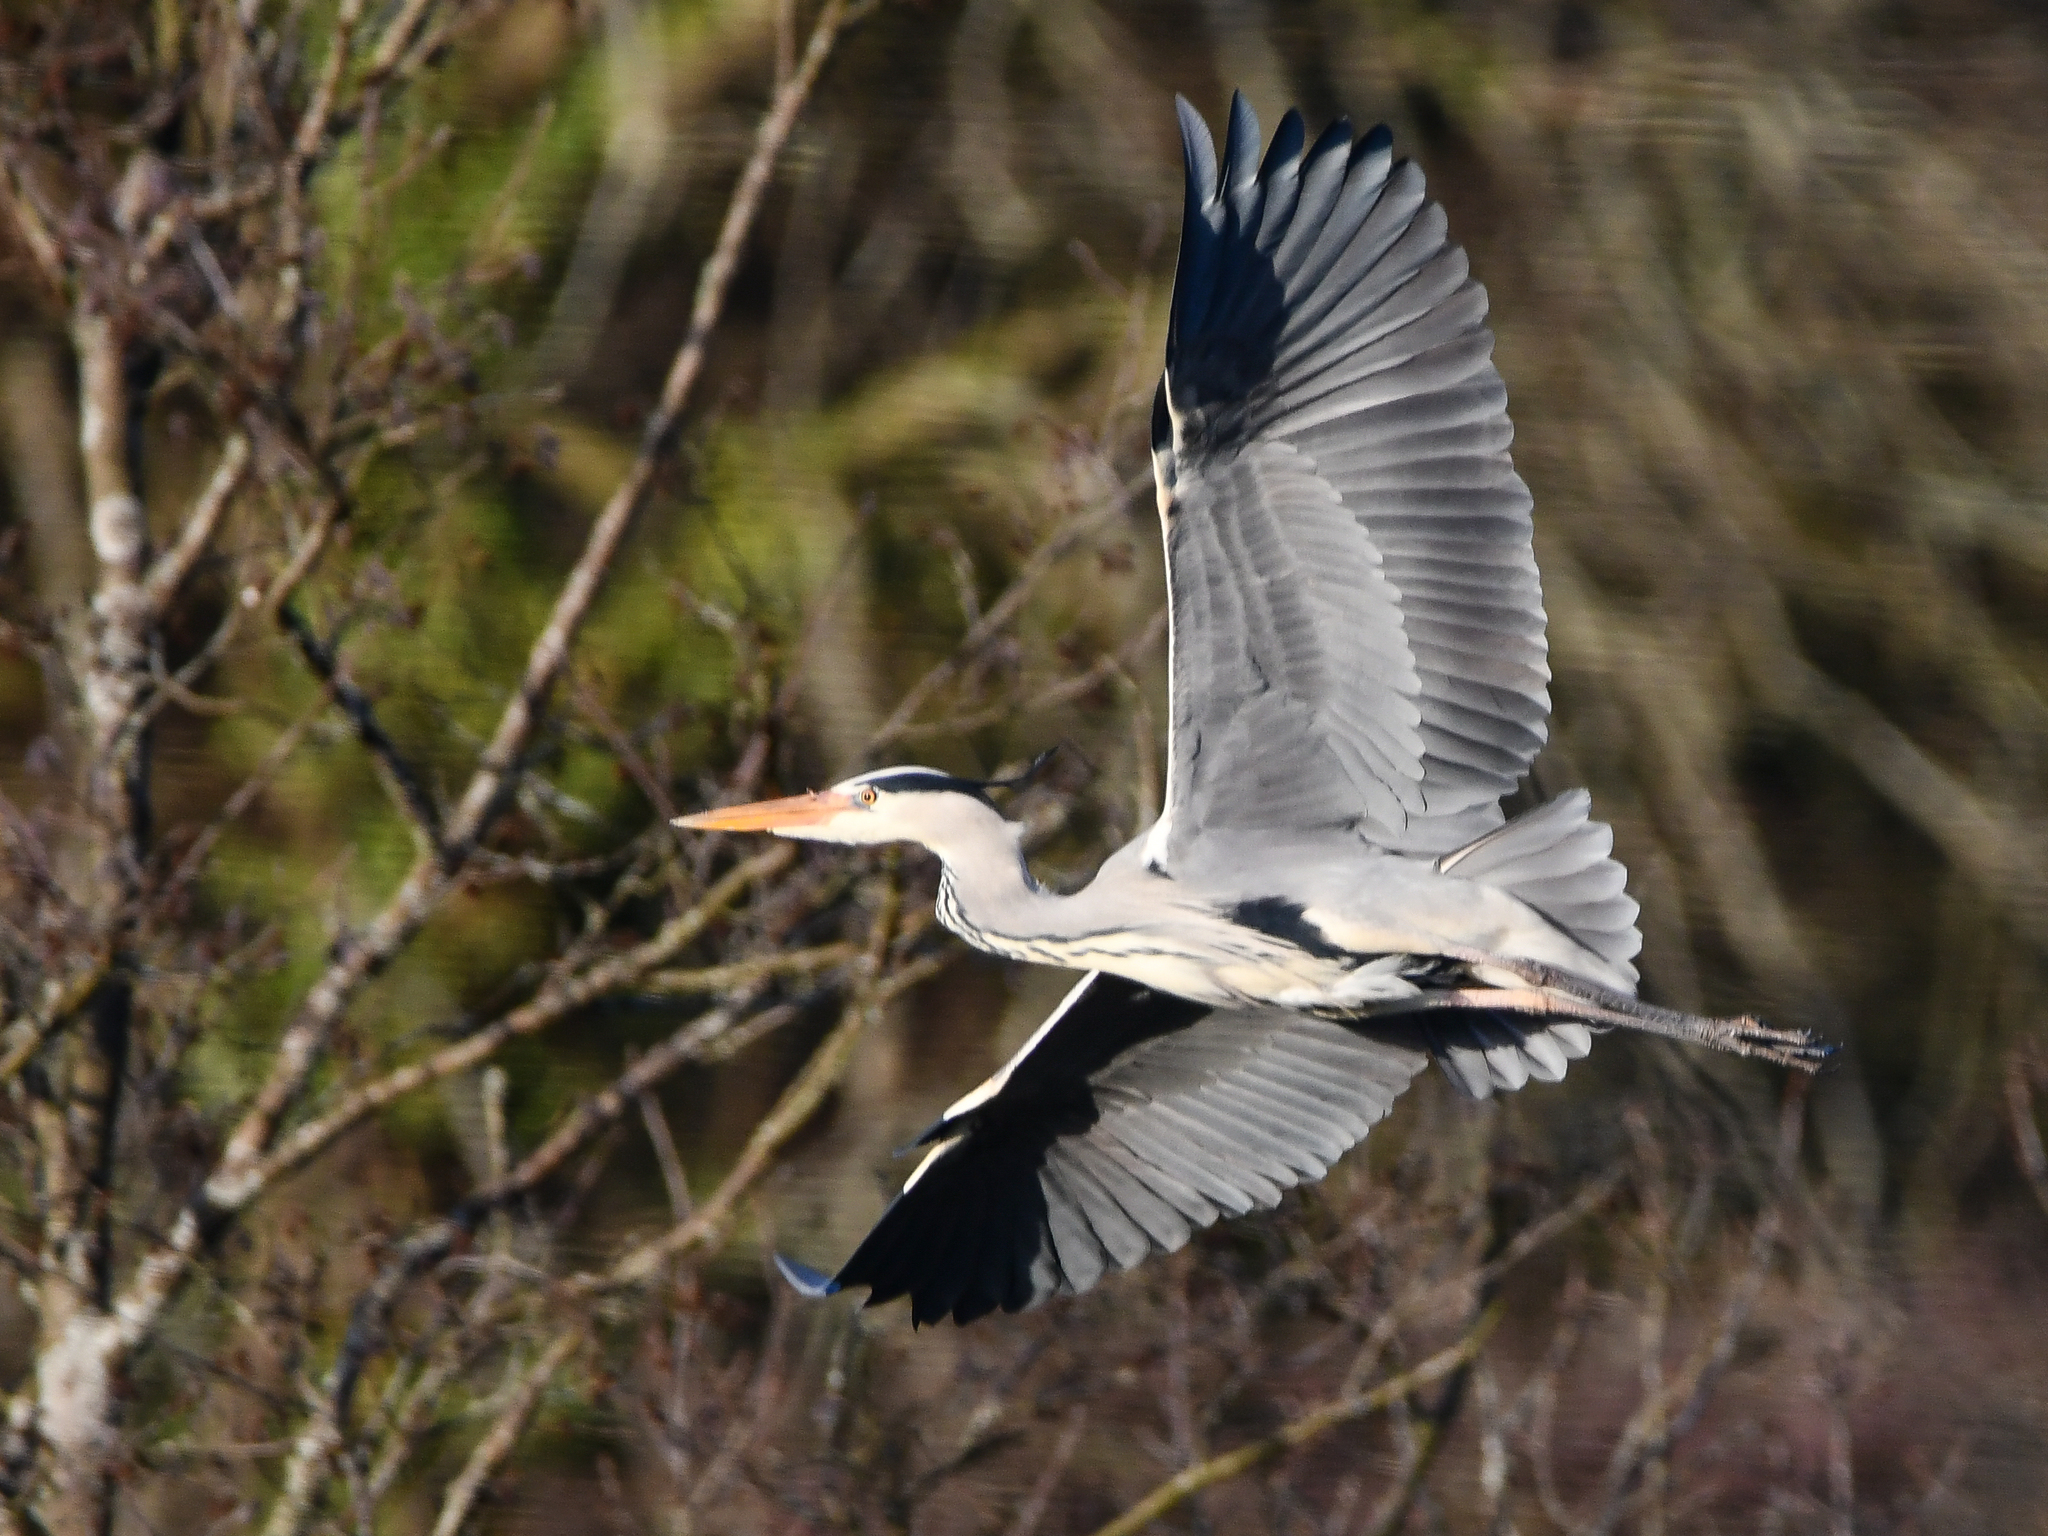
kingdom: Animalia
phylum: Chordata
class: Aves
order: Pelecaniformes
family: Ardeidae
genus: Ardea
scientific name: Ardea cinerea
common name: Grey heron
